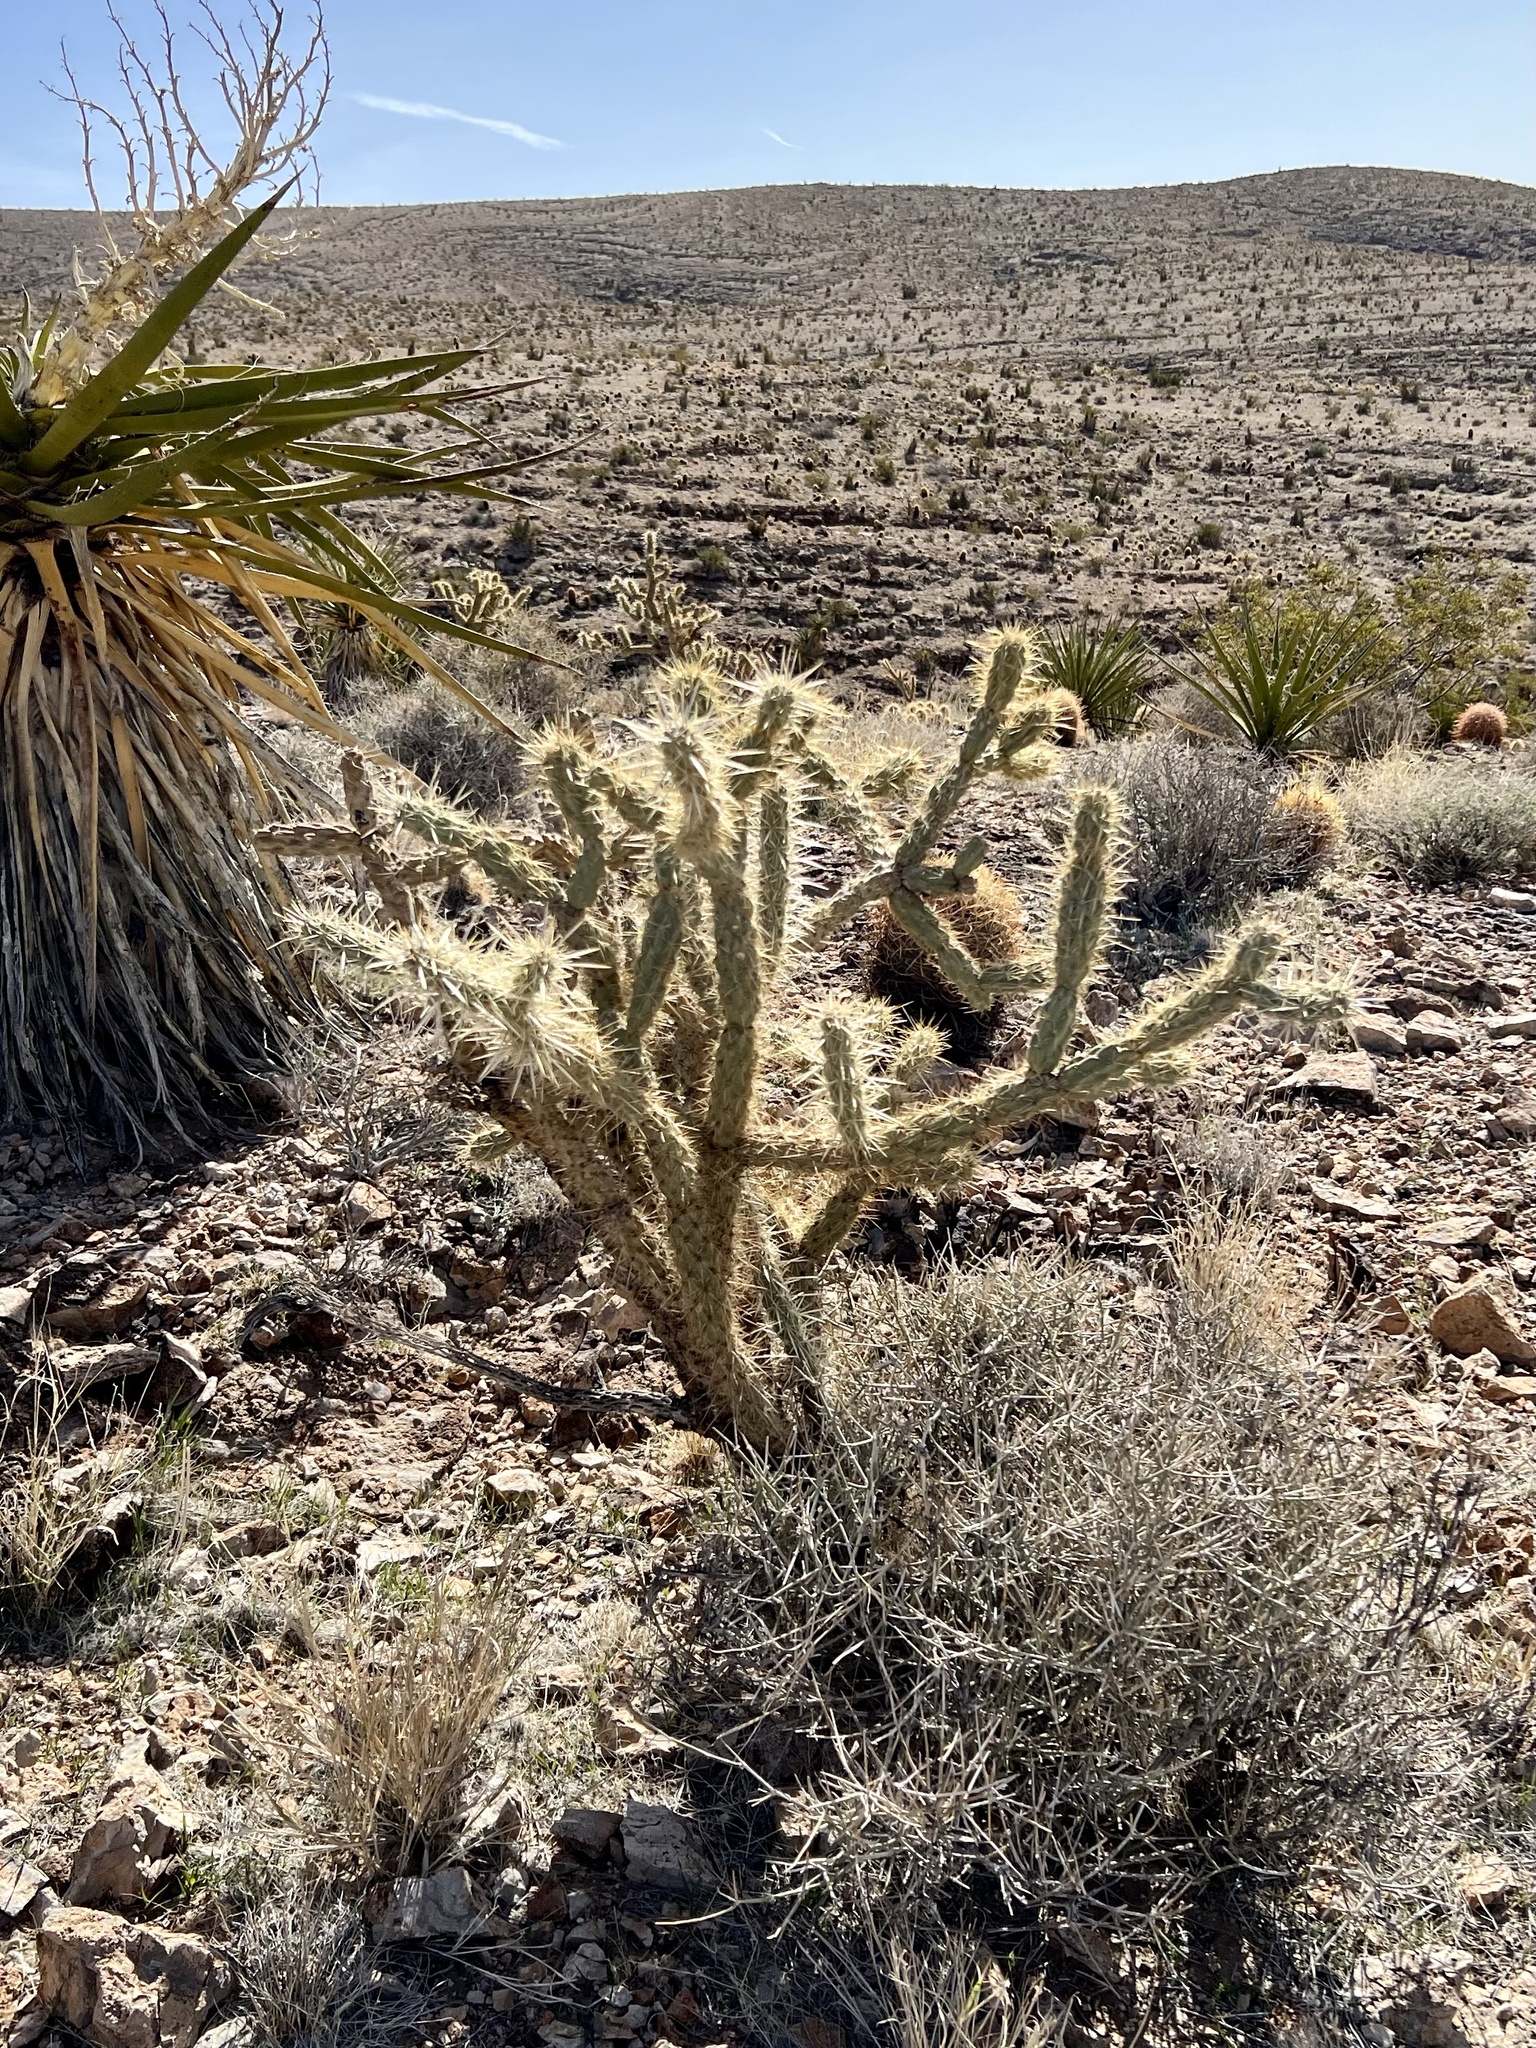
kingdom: Plantae
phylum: Tracheophyta
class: Magnoliopsida
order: Caryophyllales
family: Cactaceae
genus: Cylindropuntia
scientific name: Cylindropuntia acanthocarpa
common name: Buckhorn cholla
